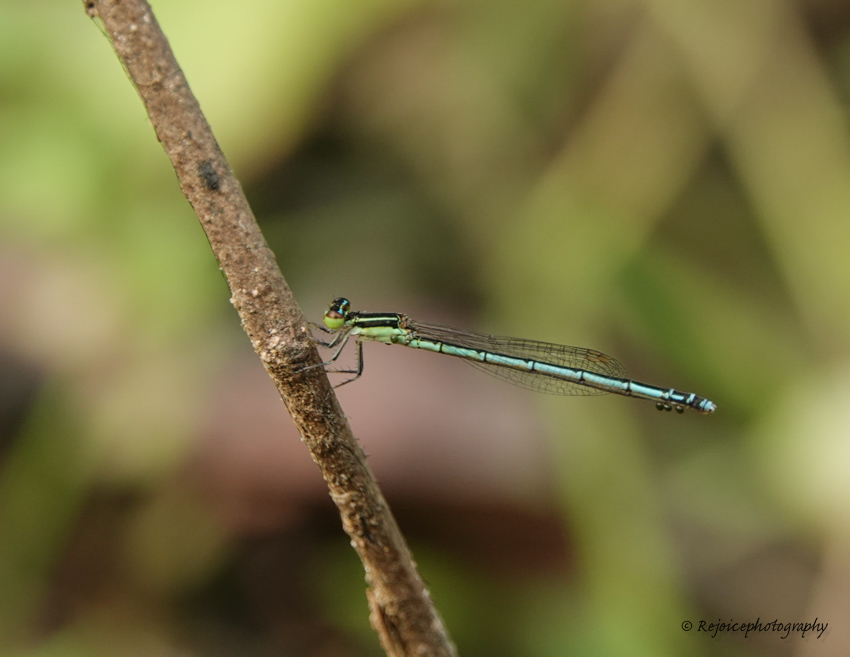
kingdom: Animalia
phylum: Arthropoda
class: Insecta
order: Odonata
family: Coenagrionidae
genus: Agriocnemis
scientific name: Agriocnemis lacteola
